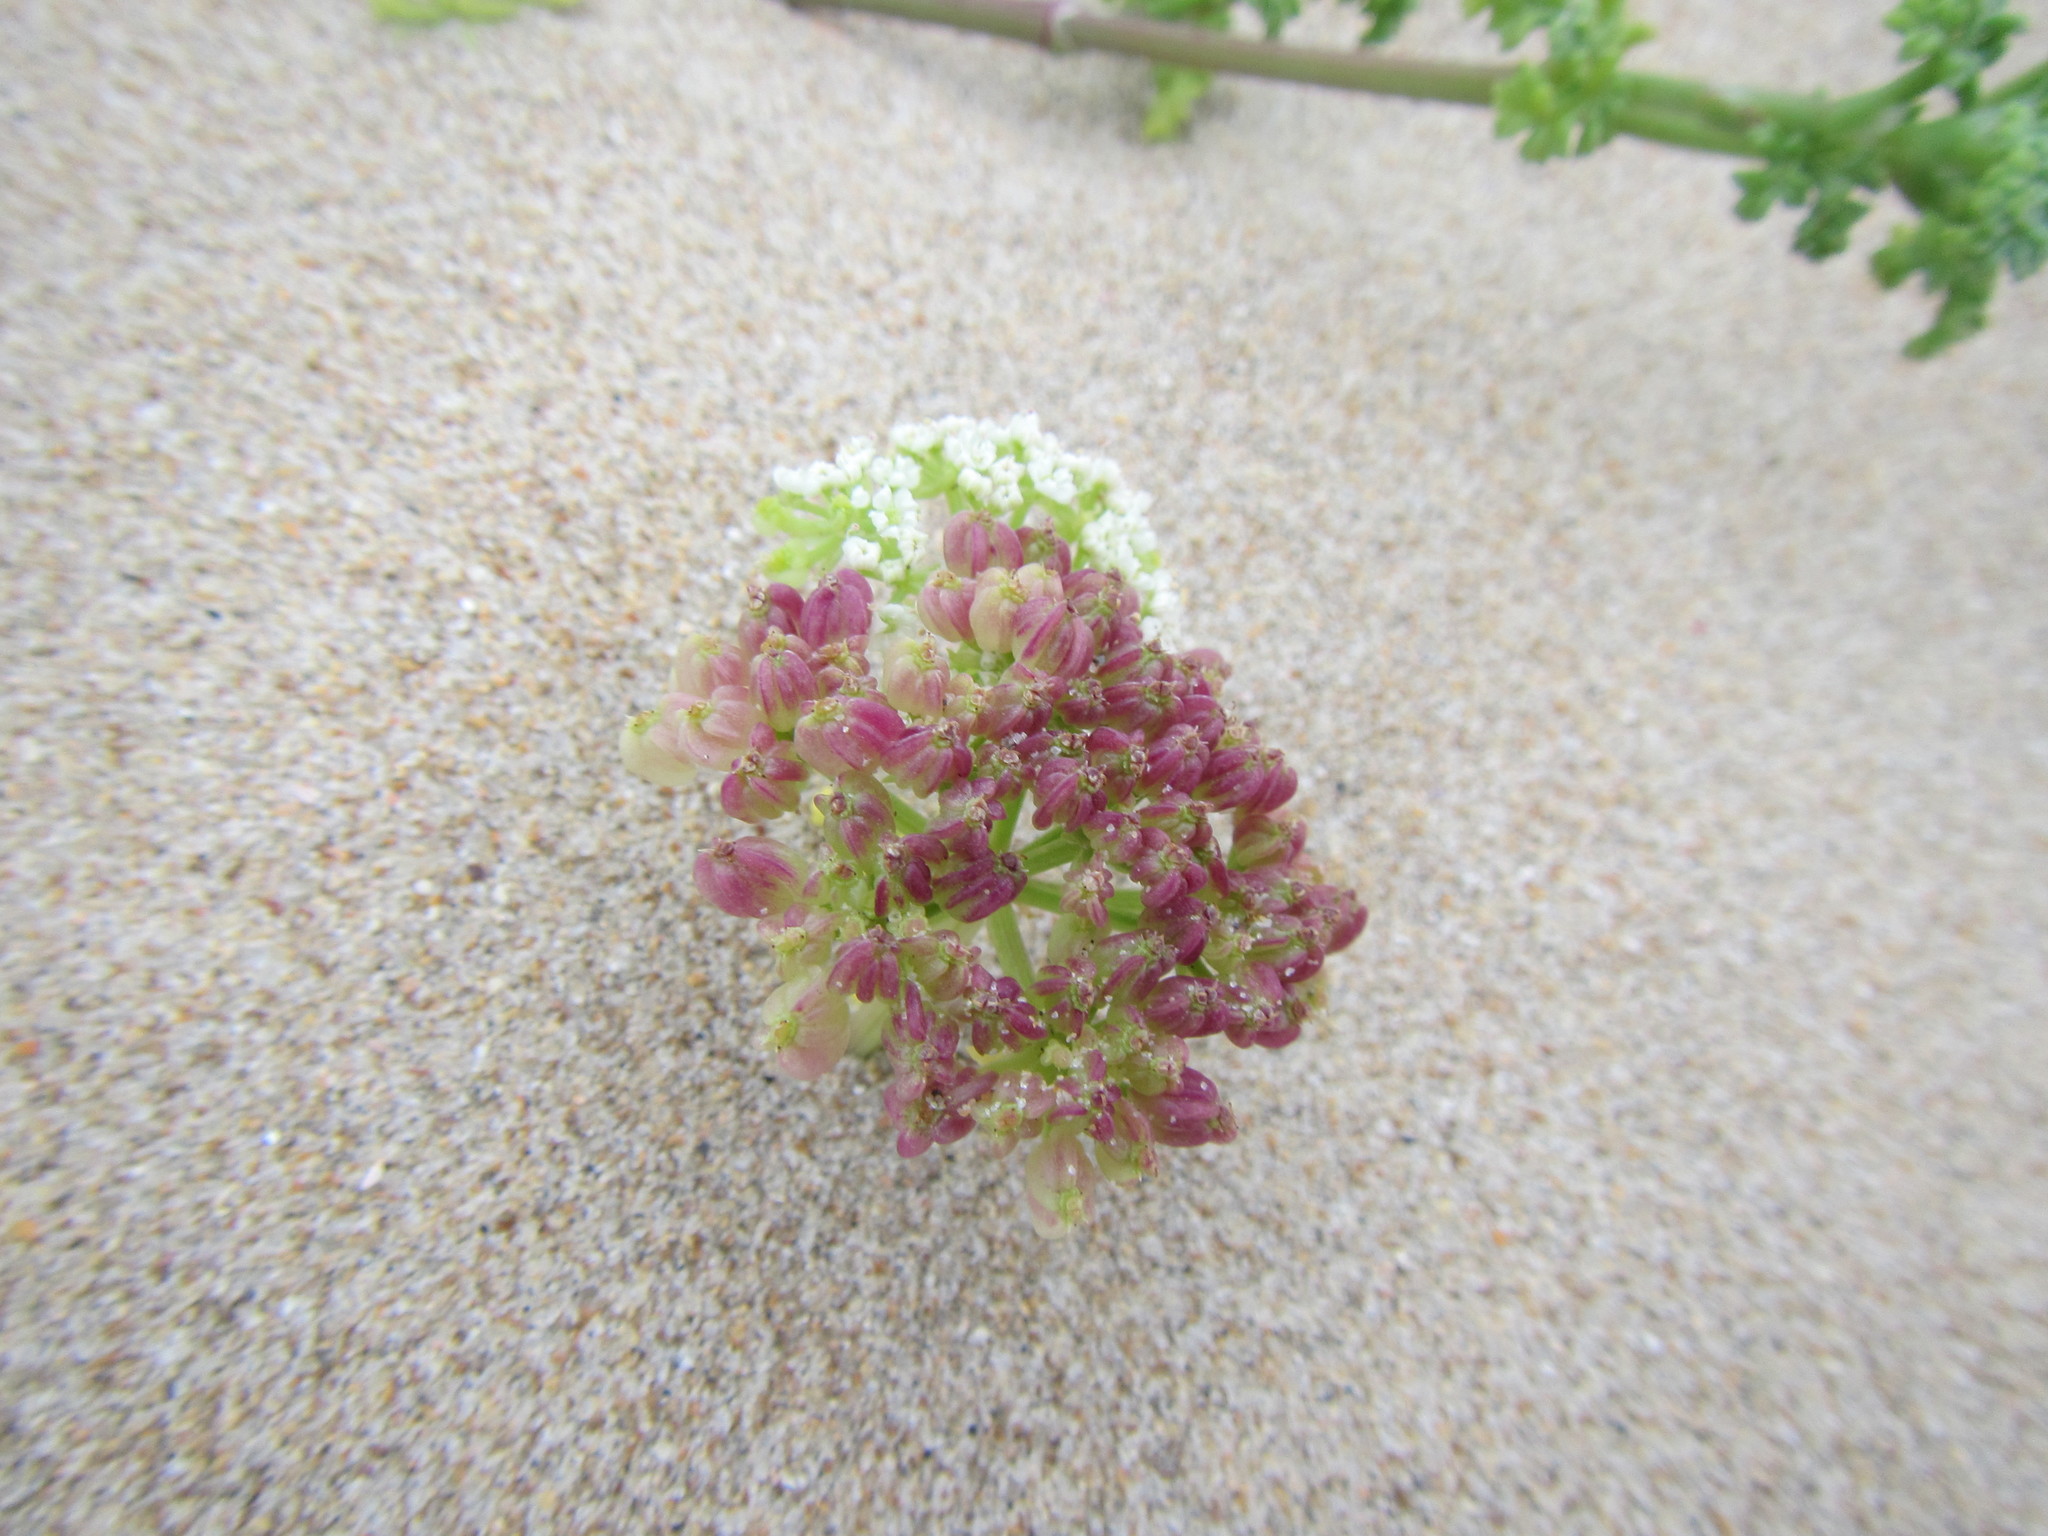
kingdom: Plantae
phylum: Tracheophyta
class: Magnoliopsida
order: Apiales
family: Apiaceae
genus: Dasispermum
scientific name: Dasispermum suffruticosum
